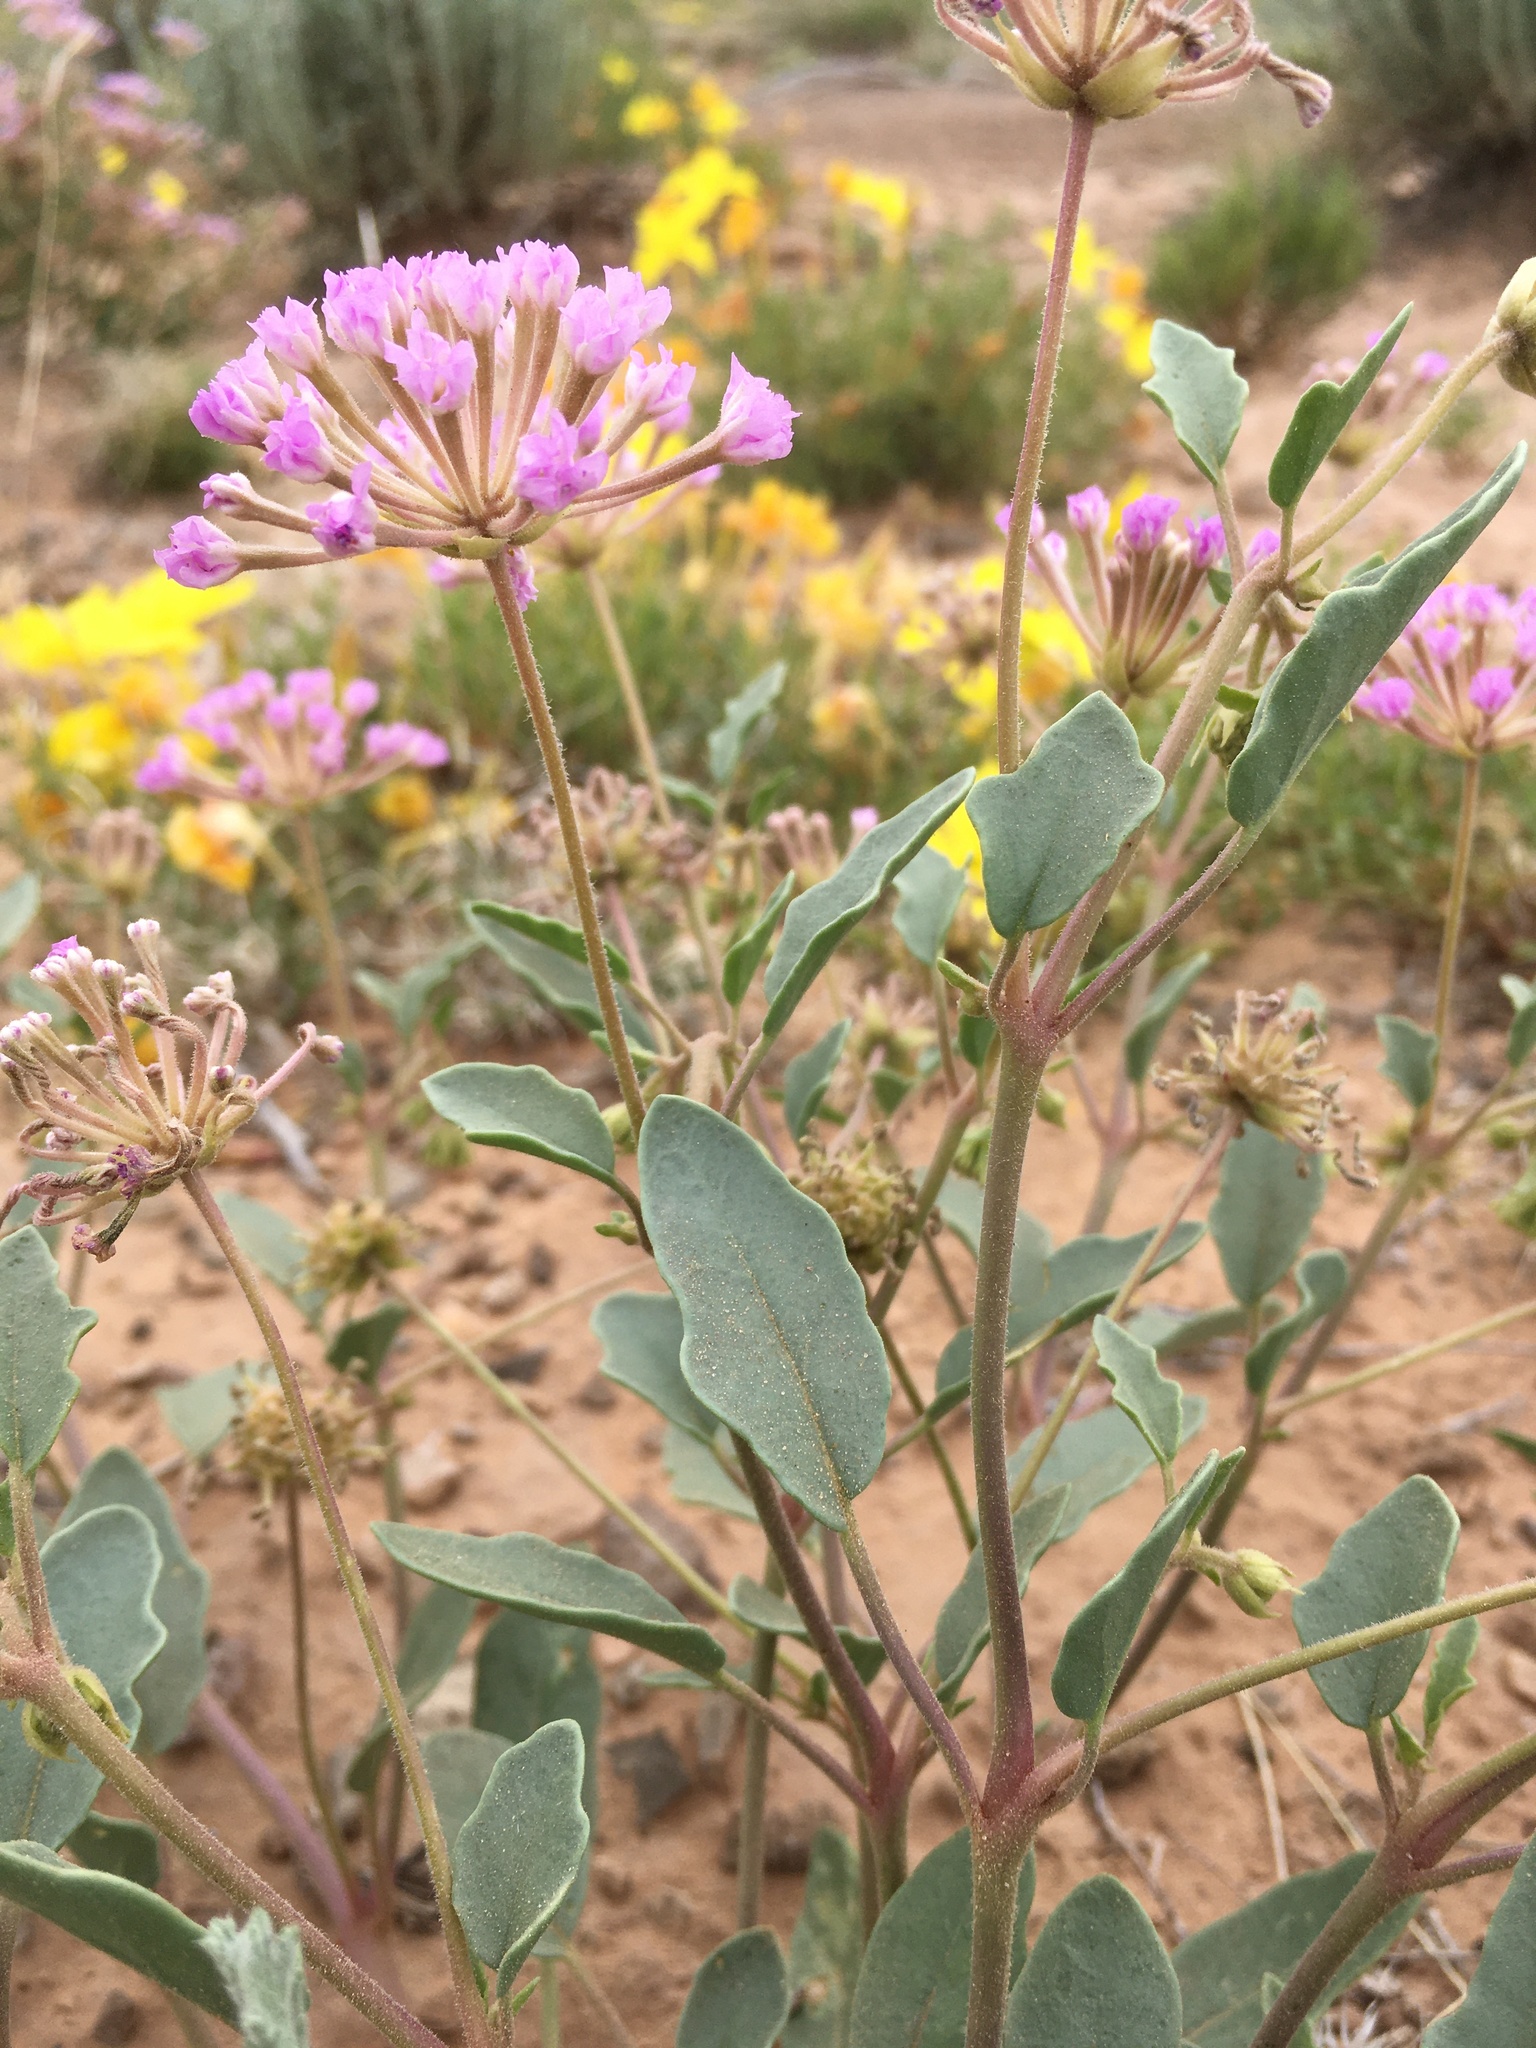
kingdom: Plantae
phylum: Tracheophyta
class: Magnoliopsida
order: Caryophyllales
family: Nyctaginaceae
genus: Abronia
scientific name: Abronia angustifolia
